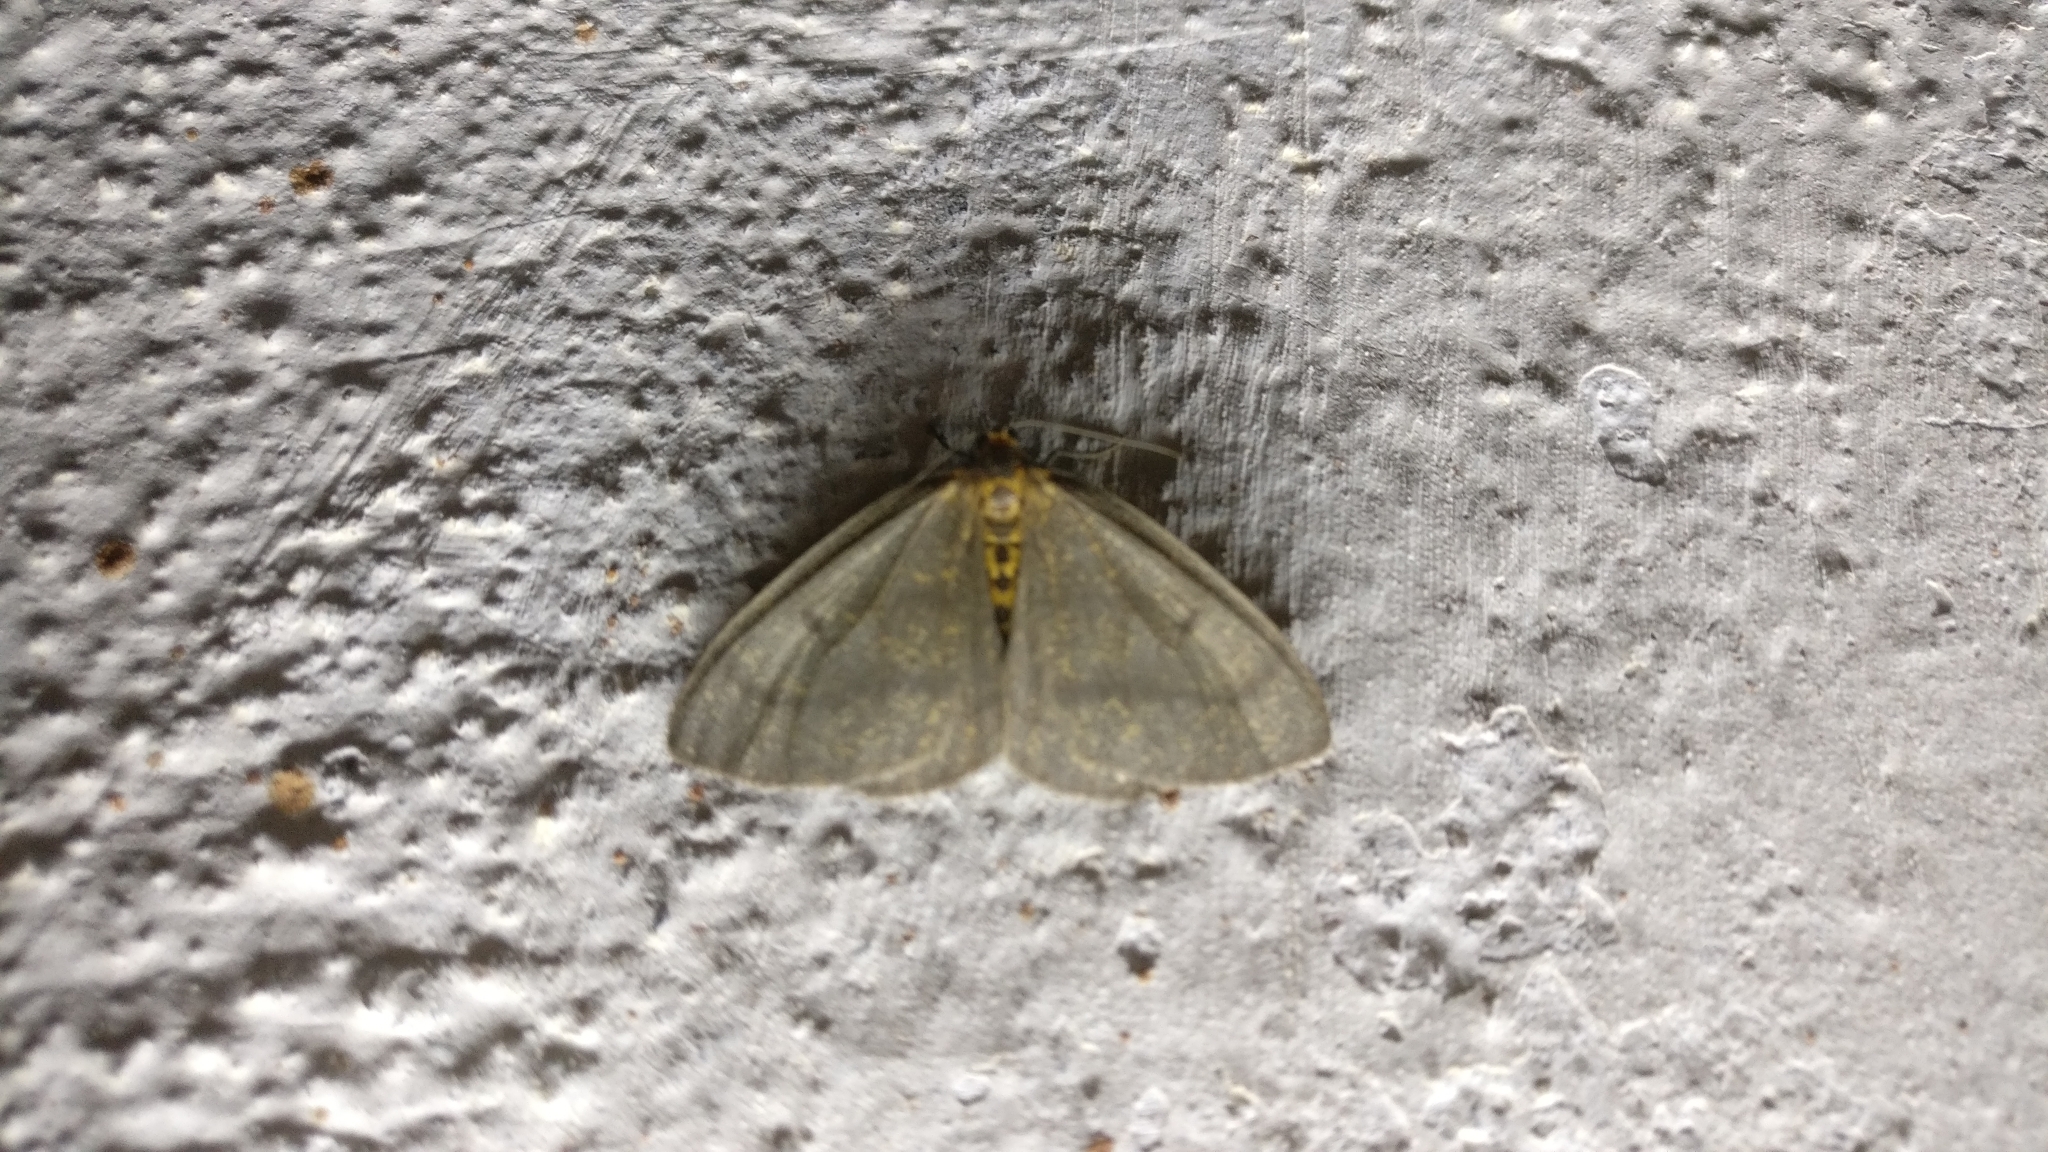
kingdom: Animalia
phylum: Arthropoda
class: Insecta
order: Lepidoptera
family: Geometridae
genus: Abraxas
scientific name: Abraxas poliaria
